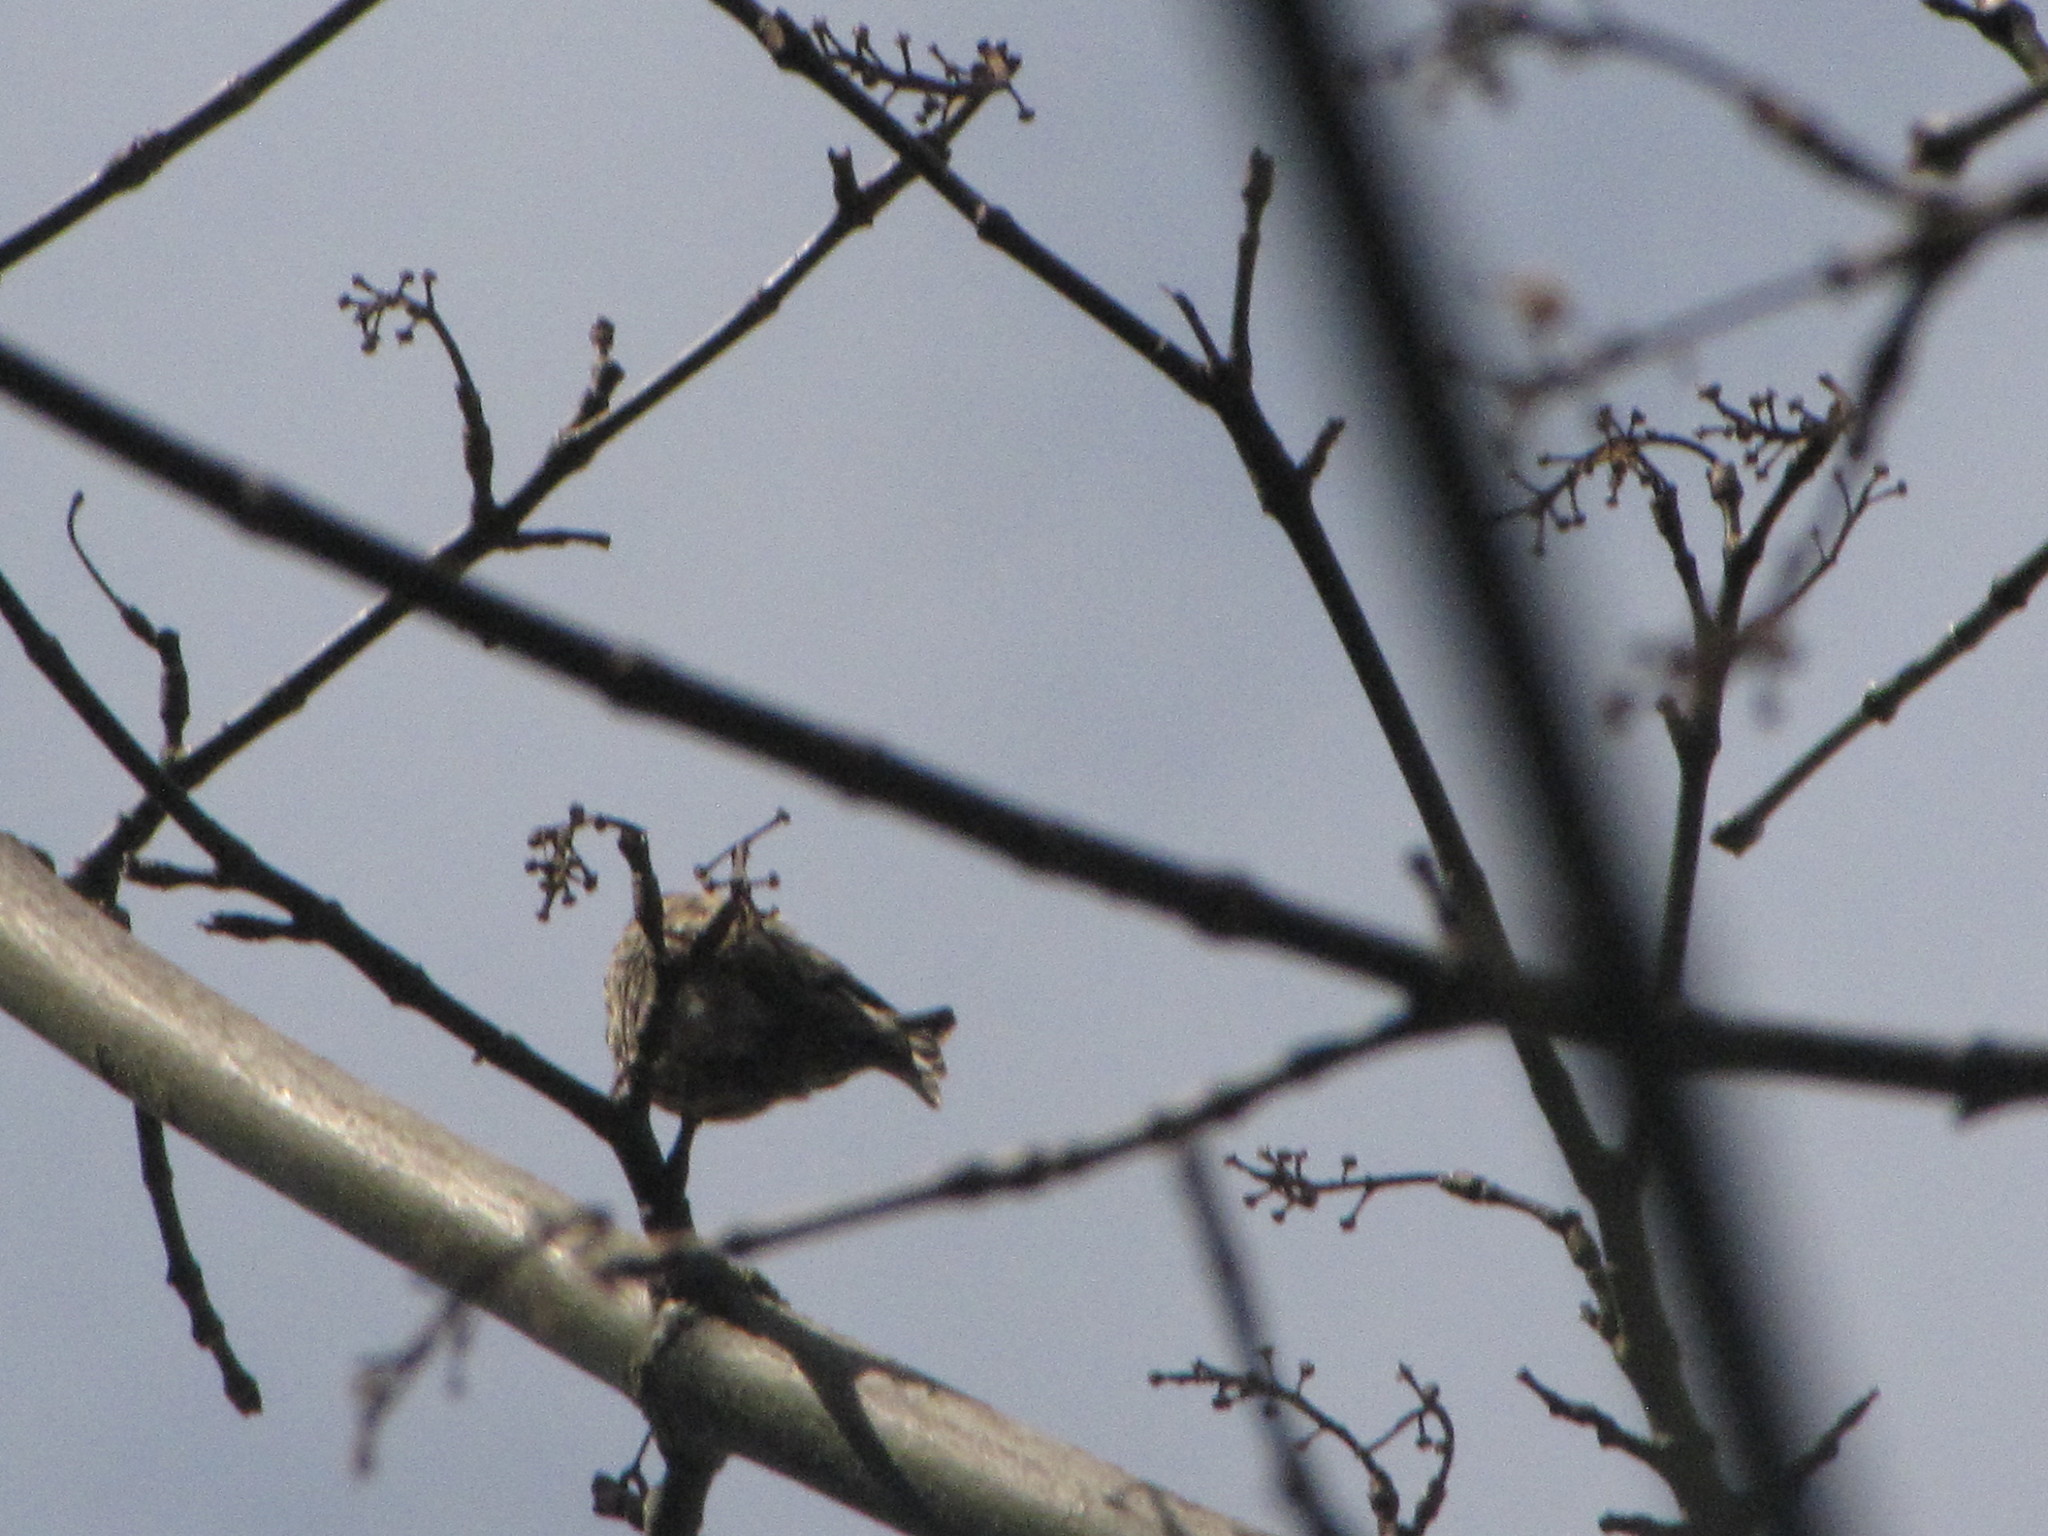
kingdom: Animalia
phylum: Chordata
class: Aves
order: Passeriformes
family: Fringillidae
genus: Spinus
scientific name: Spinus pinus
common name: Pine siskin
